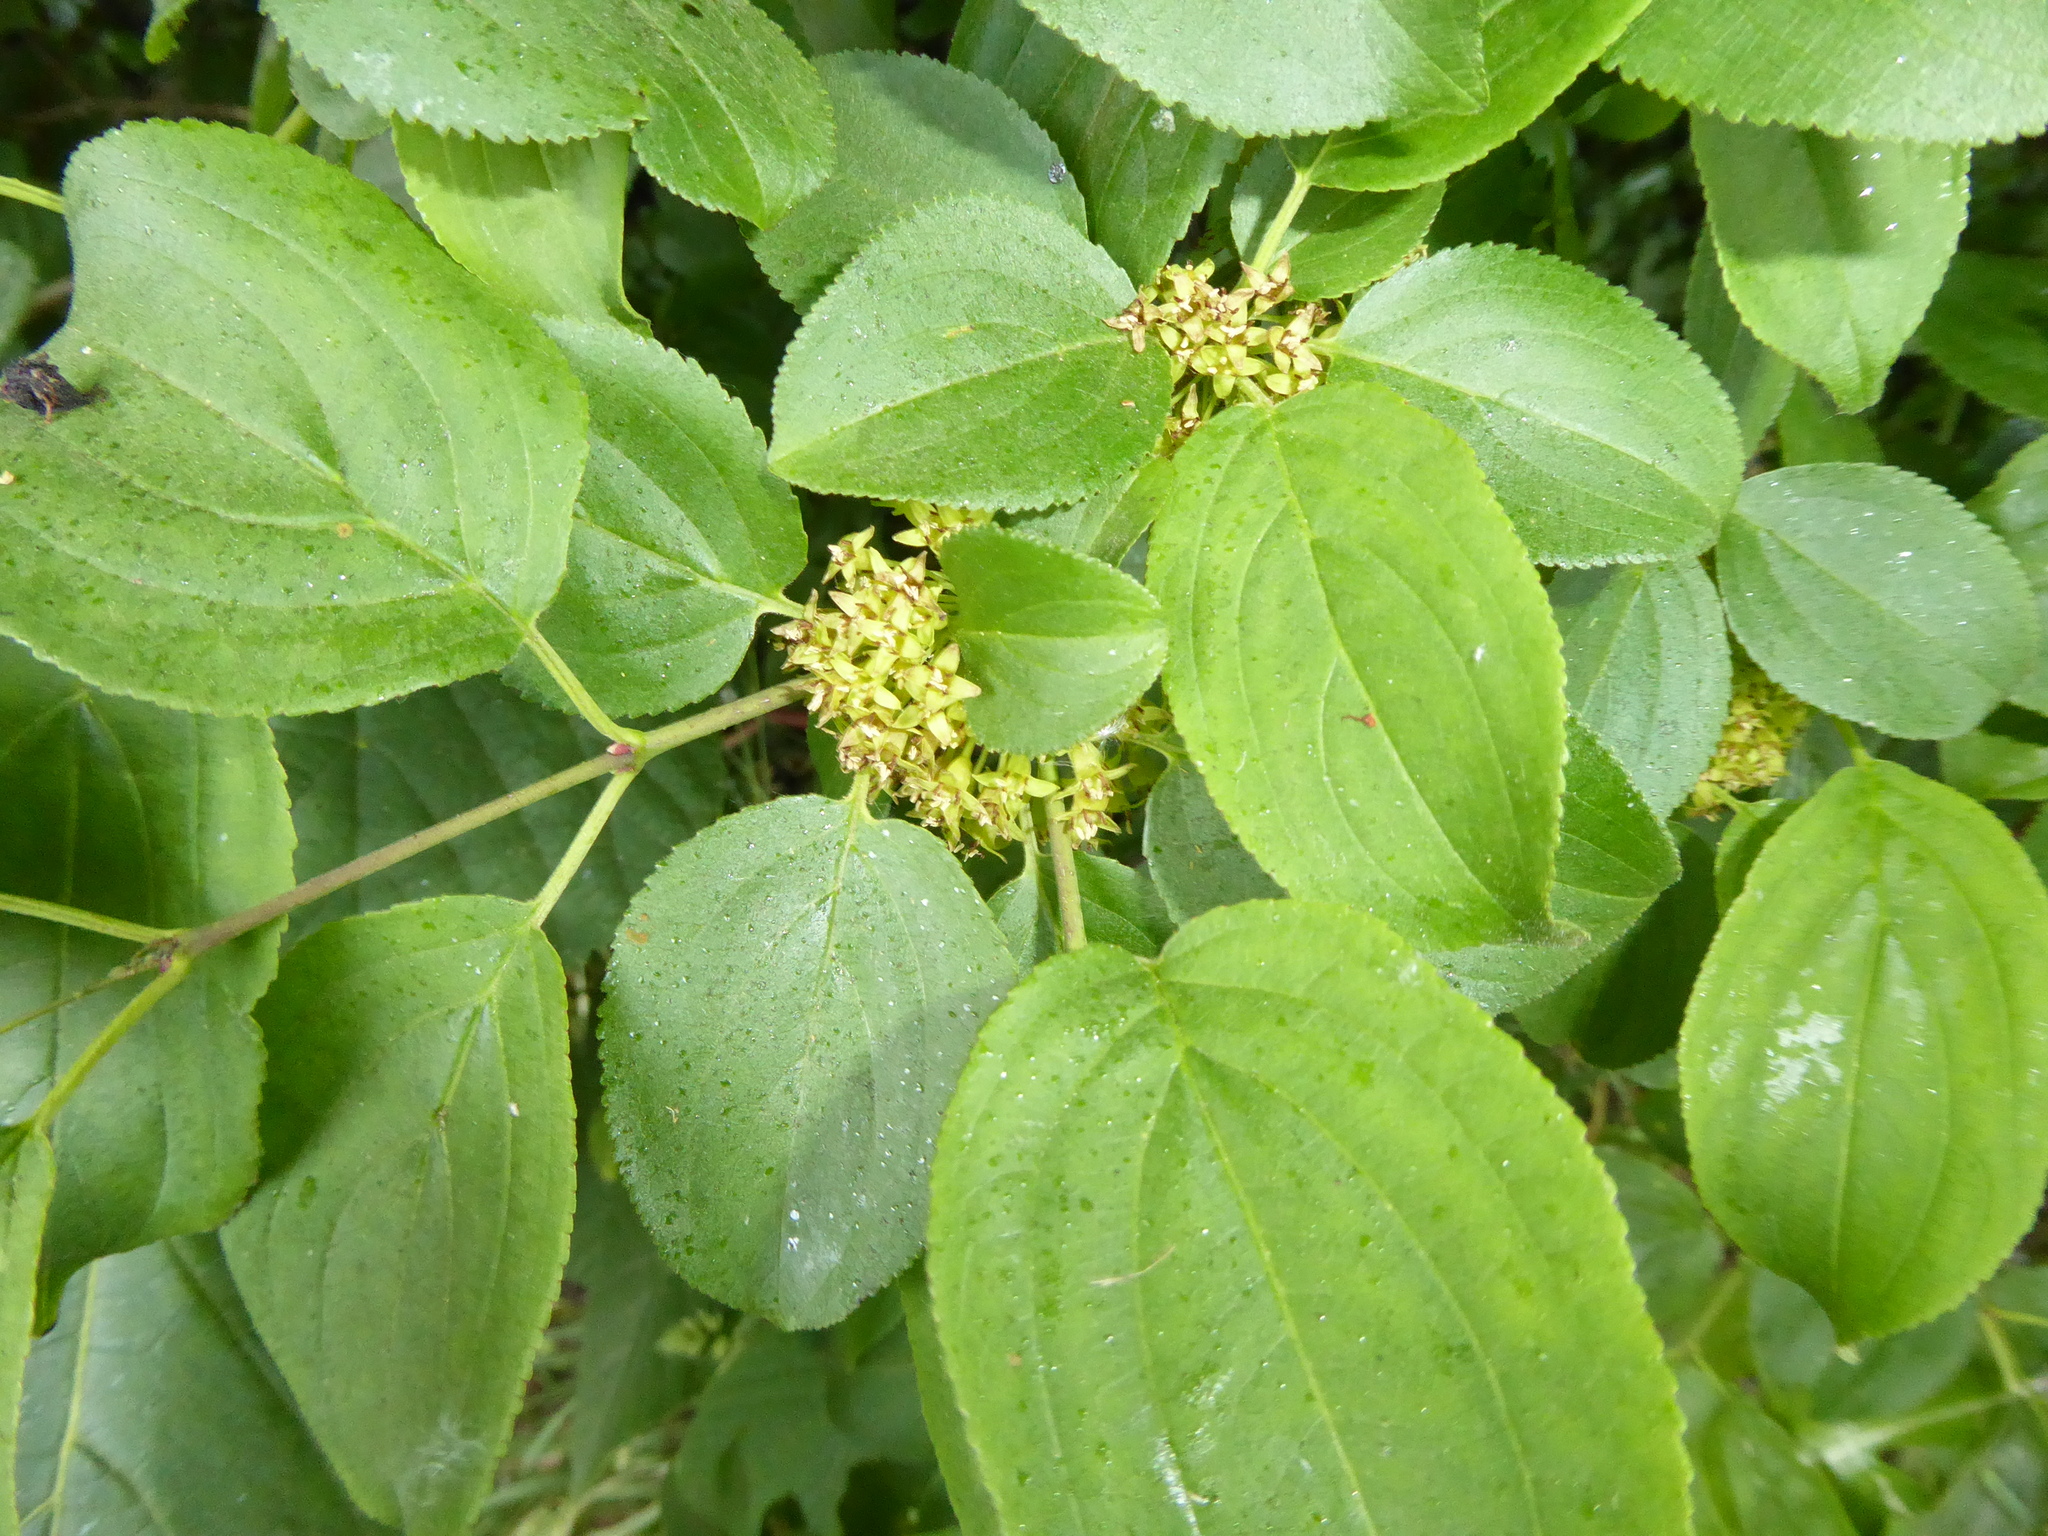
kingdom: Plantae
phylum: Tracheophyta
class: Magnoliopsida
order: Rosales
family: Rhamnaceae
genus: Rhamnus
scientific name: Rhamnus cathartica
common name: Common buckthorn
